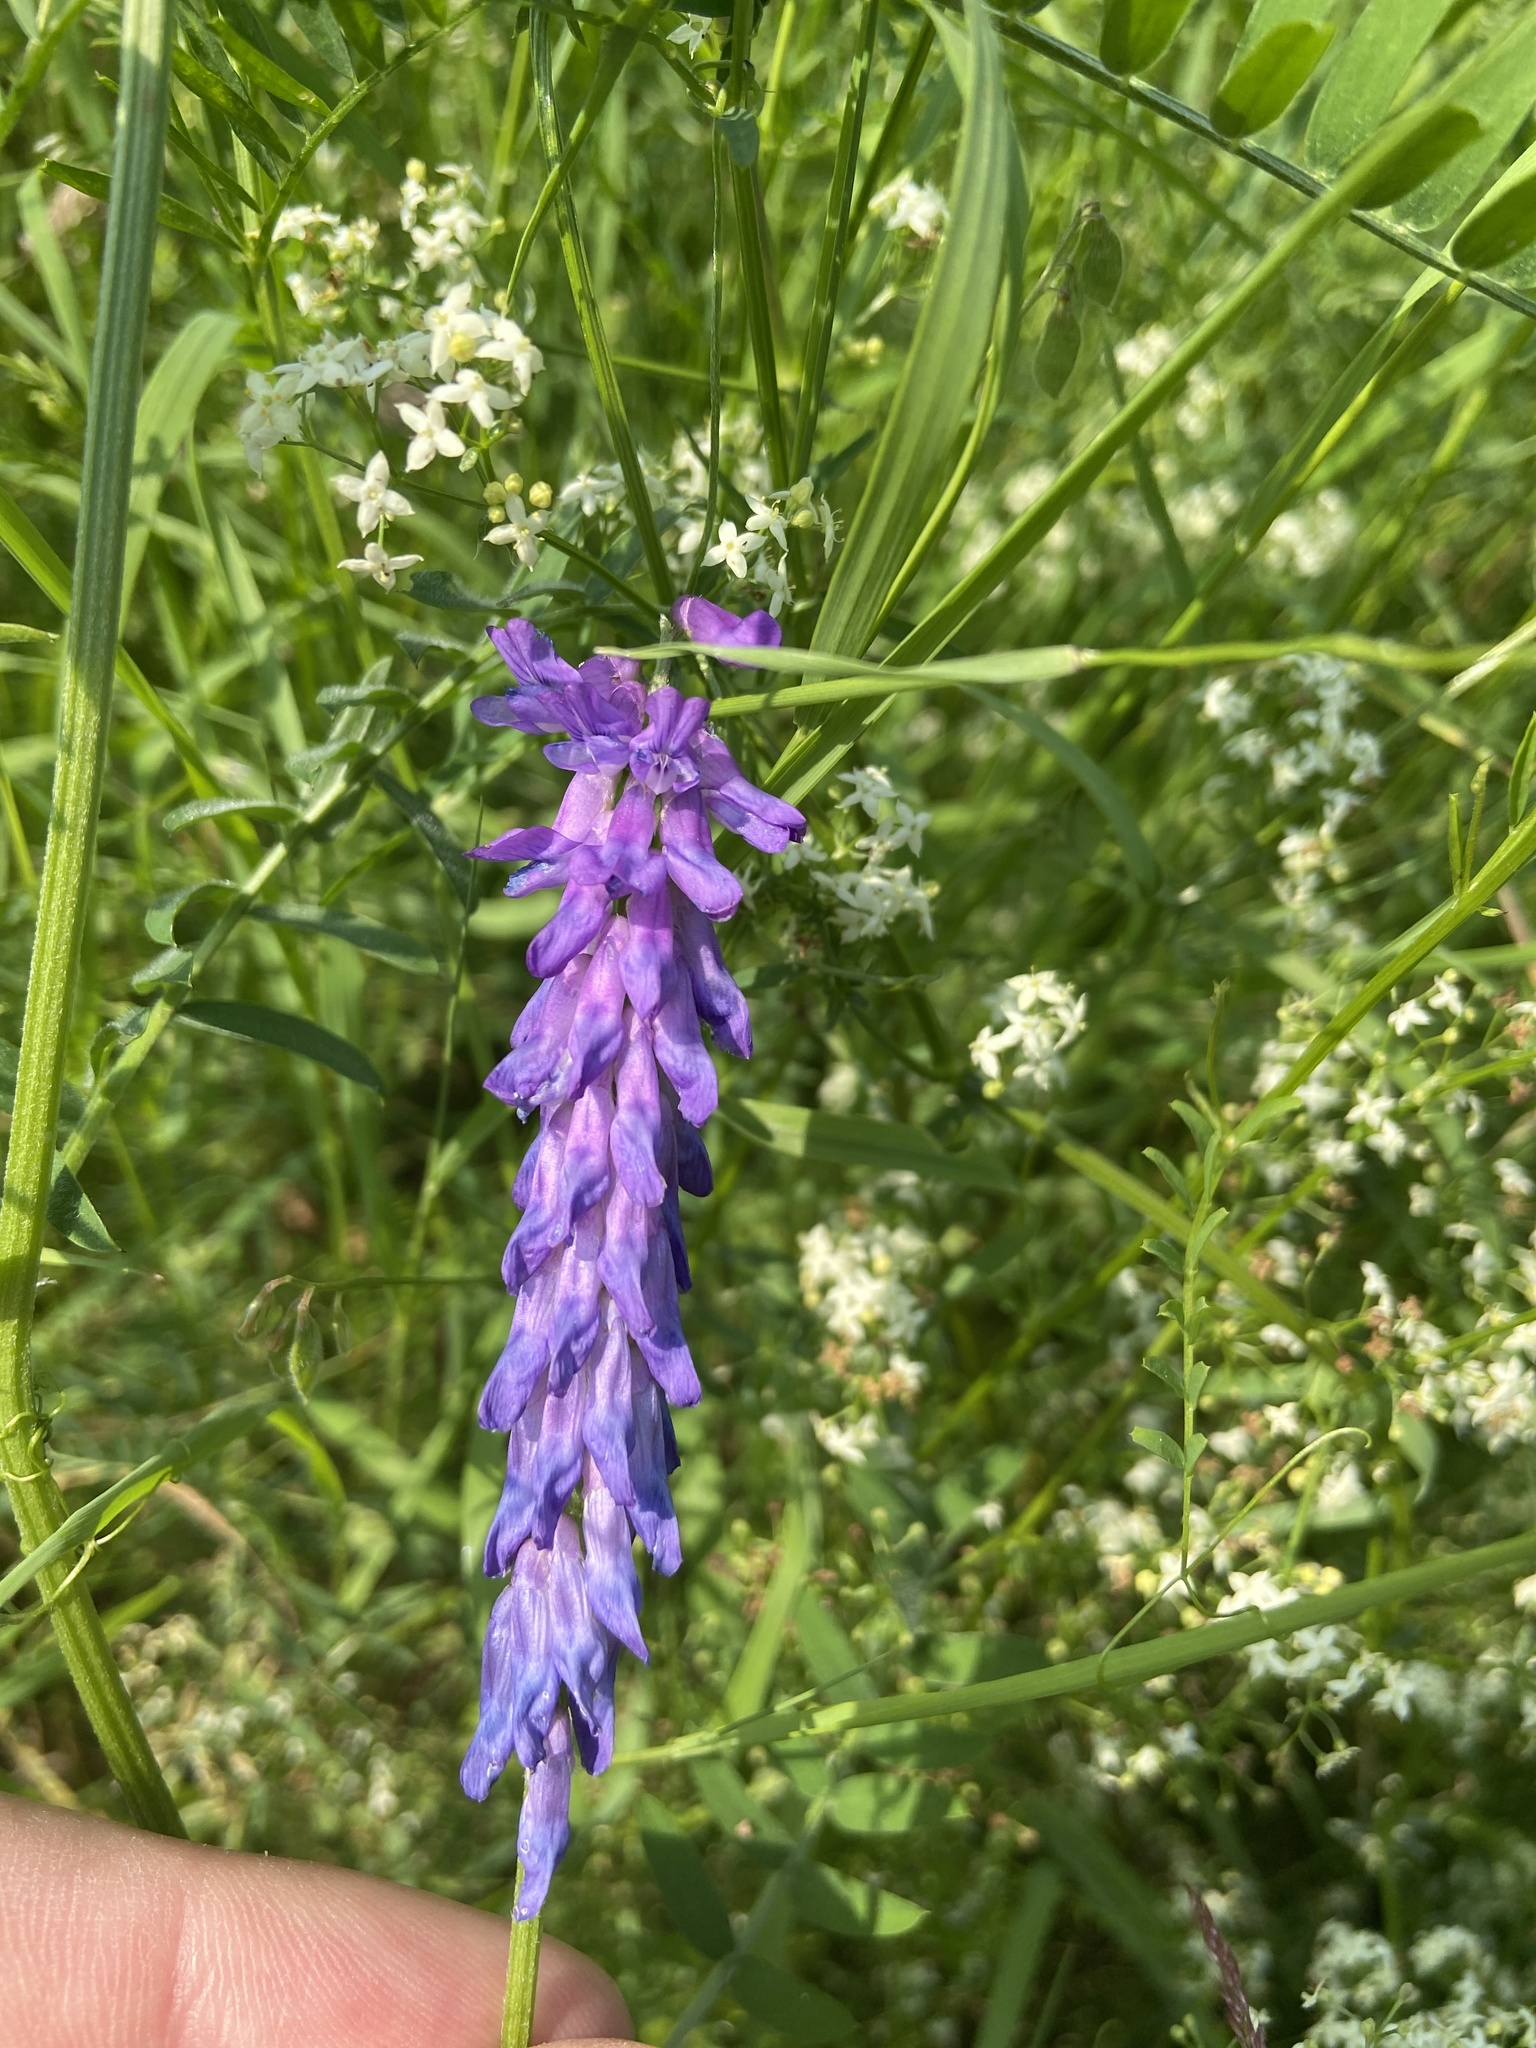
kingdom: Plantae
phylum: Tracheophyta
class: Magnoliopsida
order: Fabales
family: Fabaceae
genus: Vicia
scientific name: Vicia cracca
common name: Bird vetch
